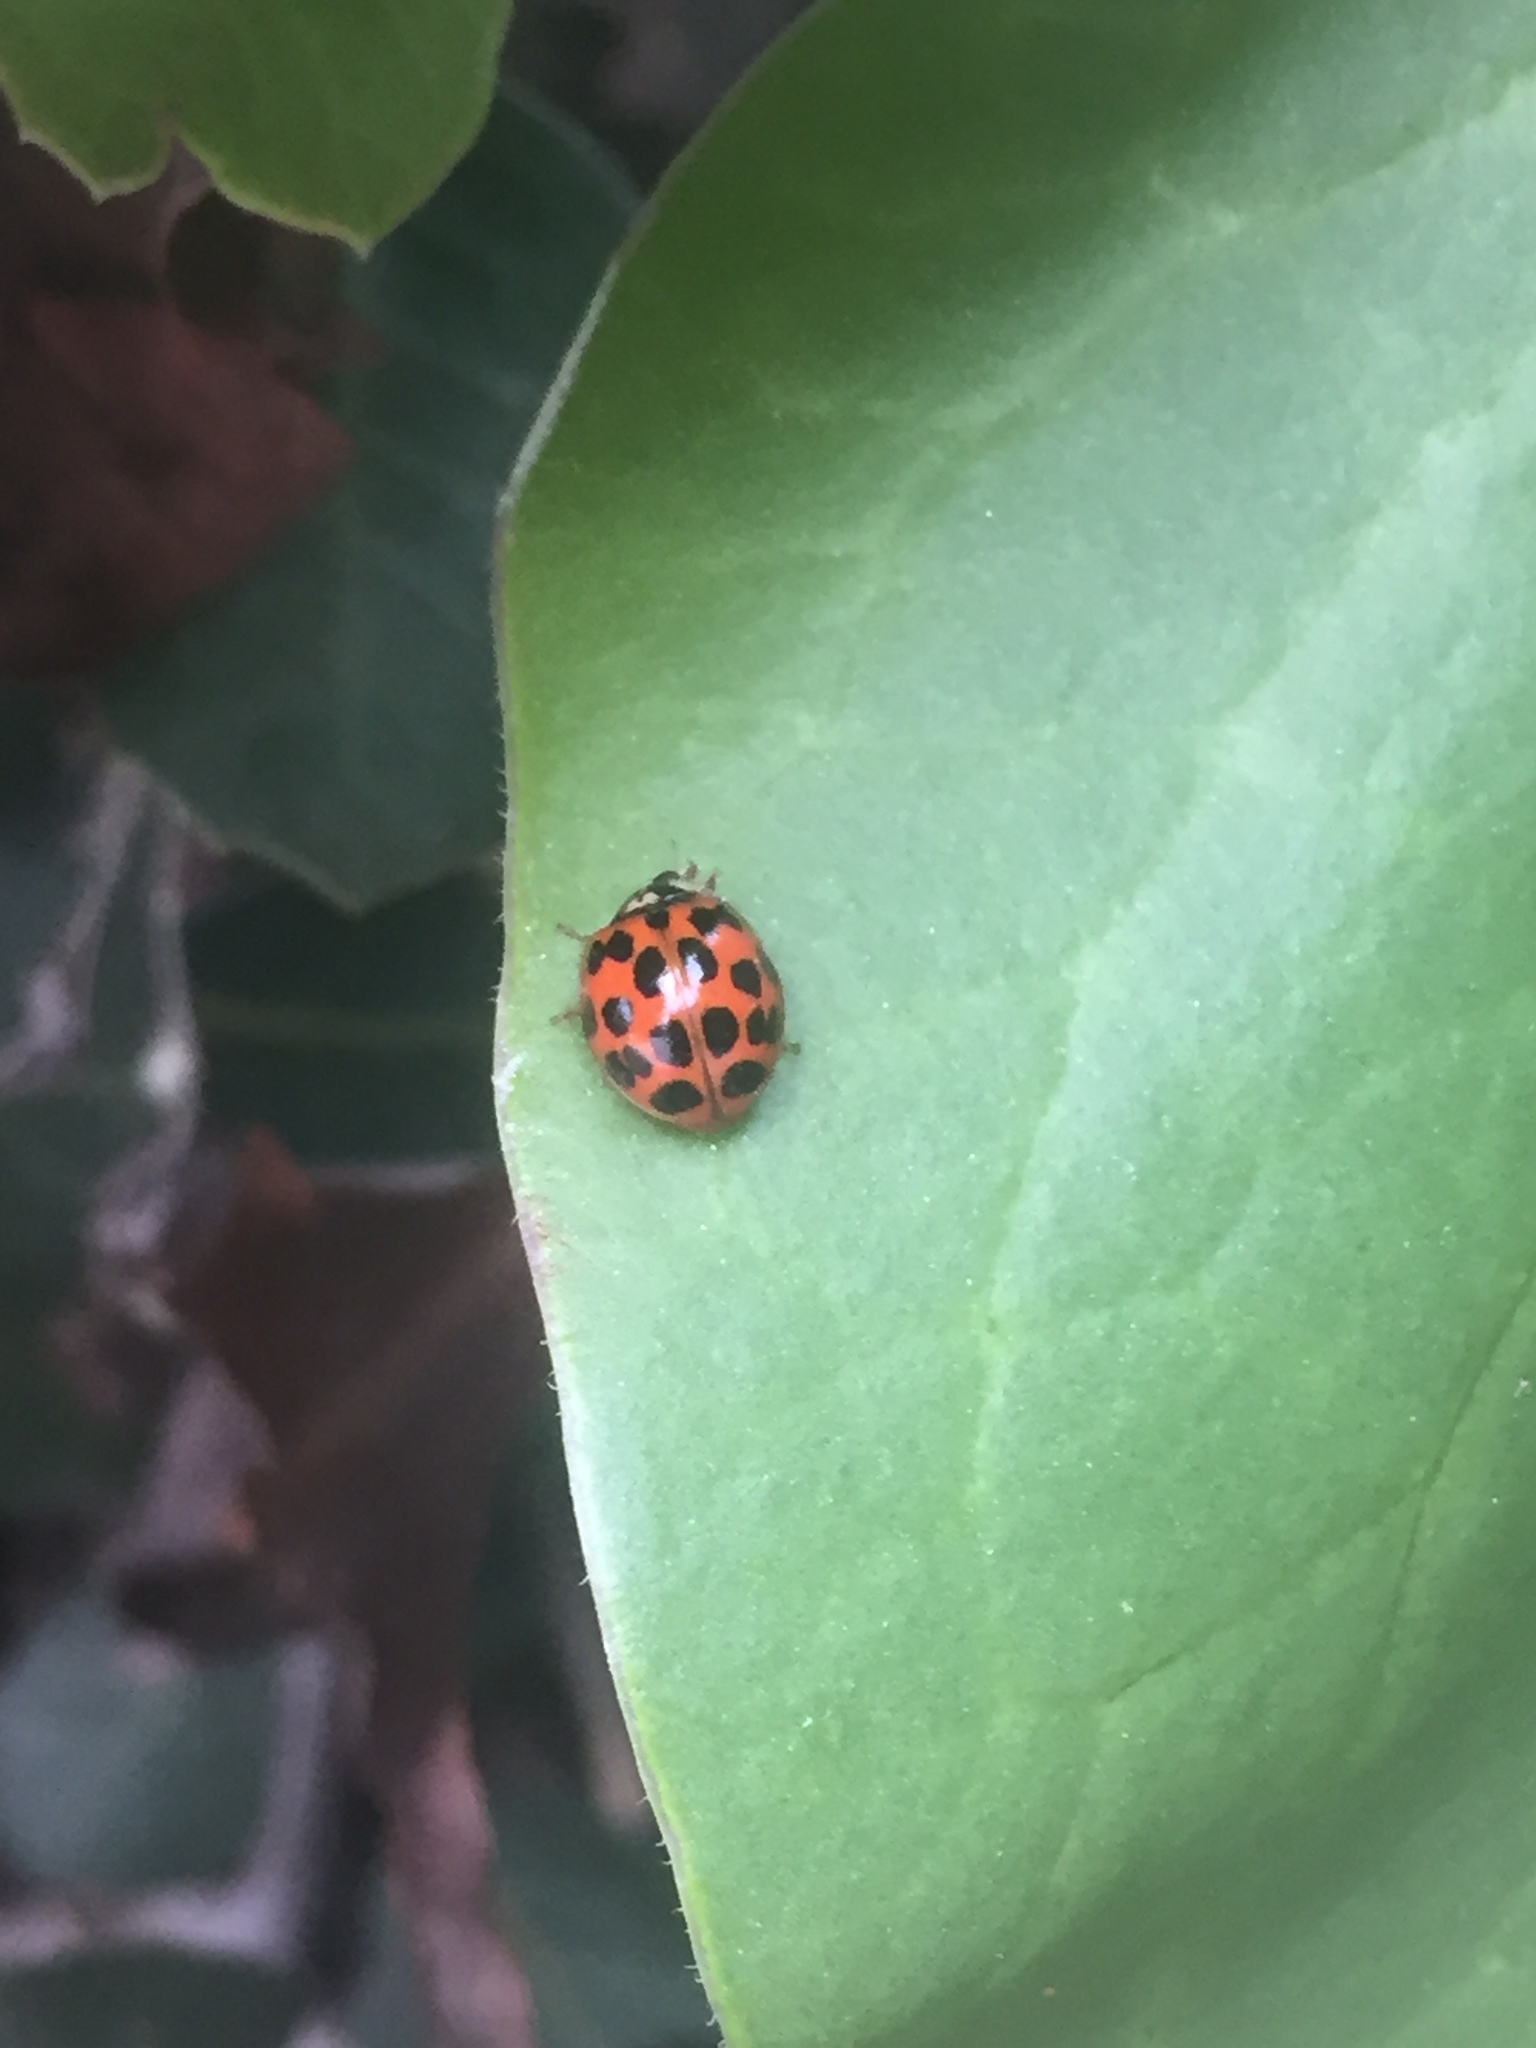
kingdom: Animalia
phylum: Arthropoda
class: Insecta
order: Coleoptera
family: Coccinellidae
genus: Harmonia
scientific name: Harmonia axyridis
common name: Harlequin ladybird
